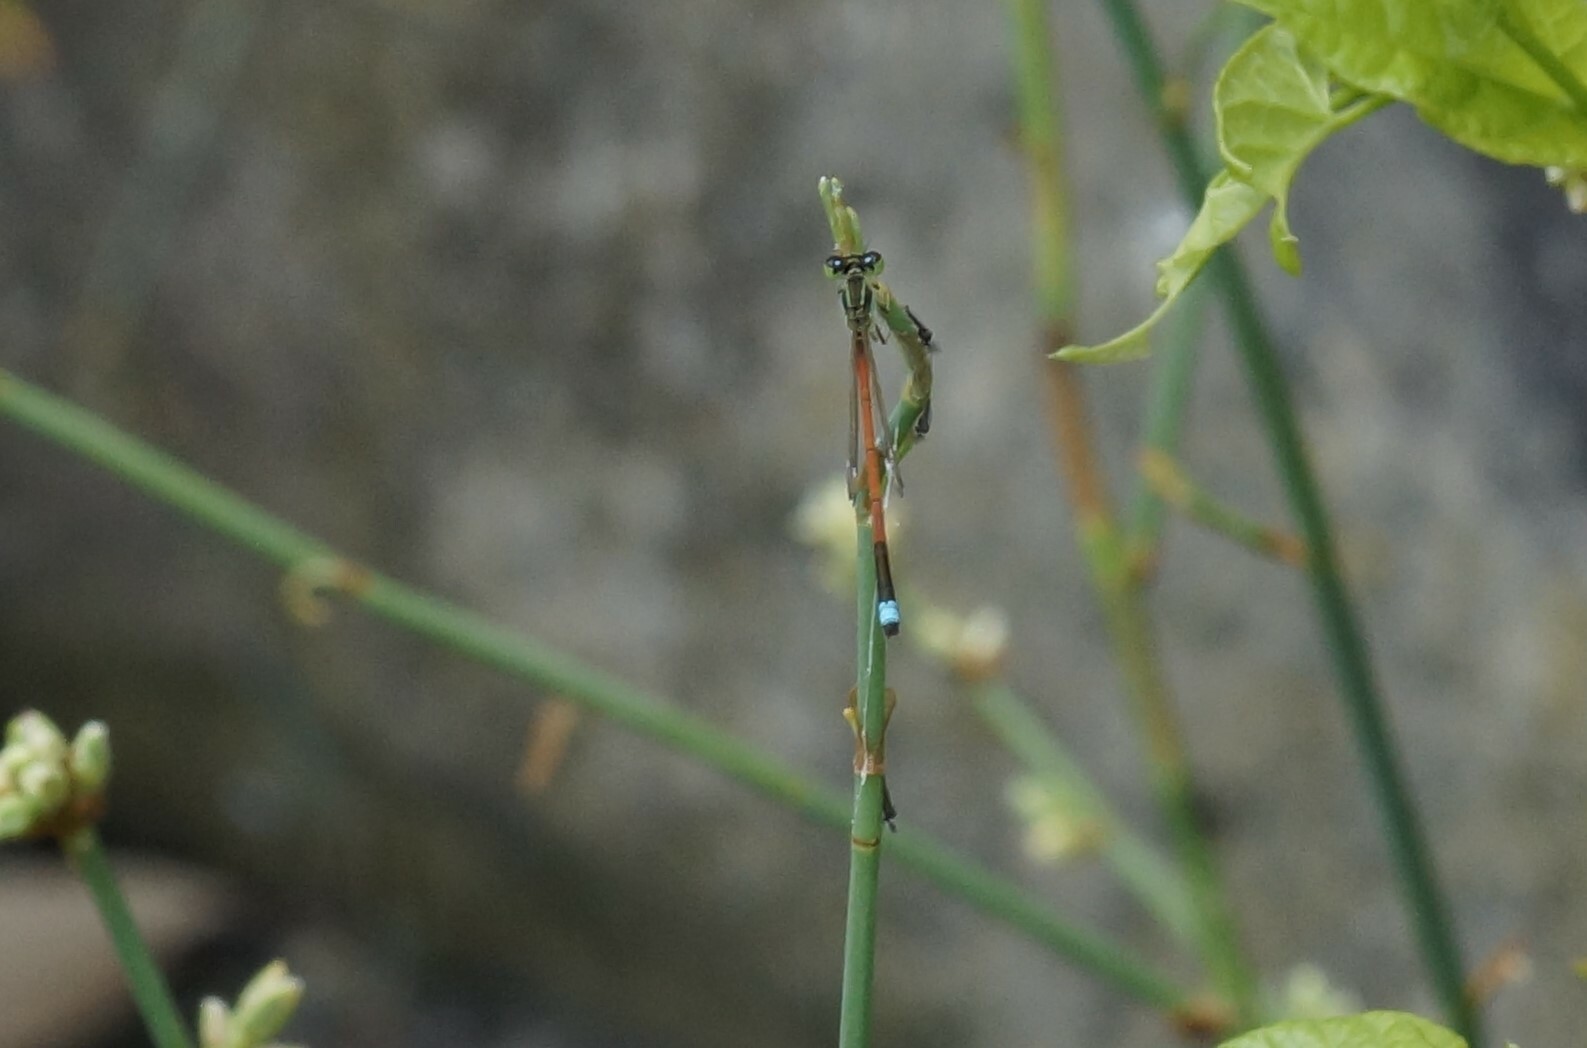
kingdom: Animalia
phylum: Arthropoda
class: Insecta
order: Odonata
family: Coenagrionidae
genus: Ischnura
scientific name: Ischnura aurora
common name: Gossamer damselfly
